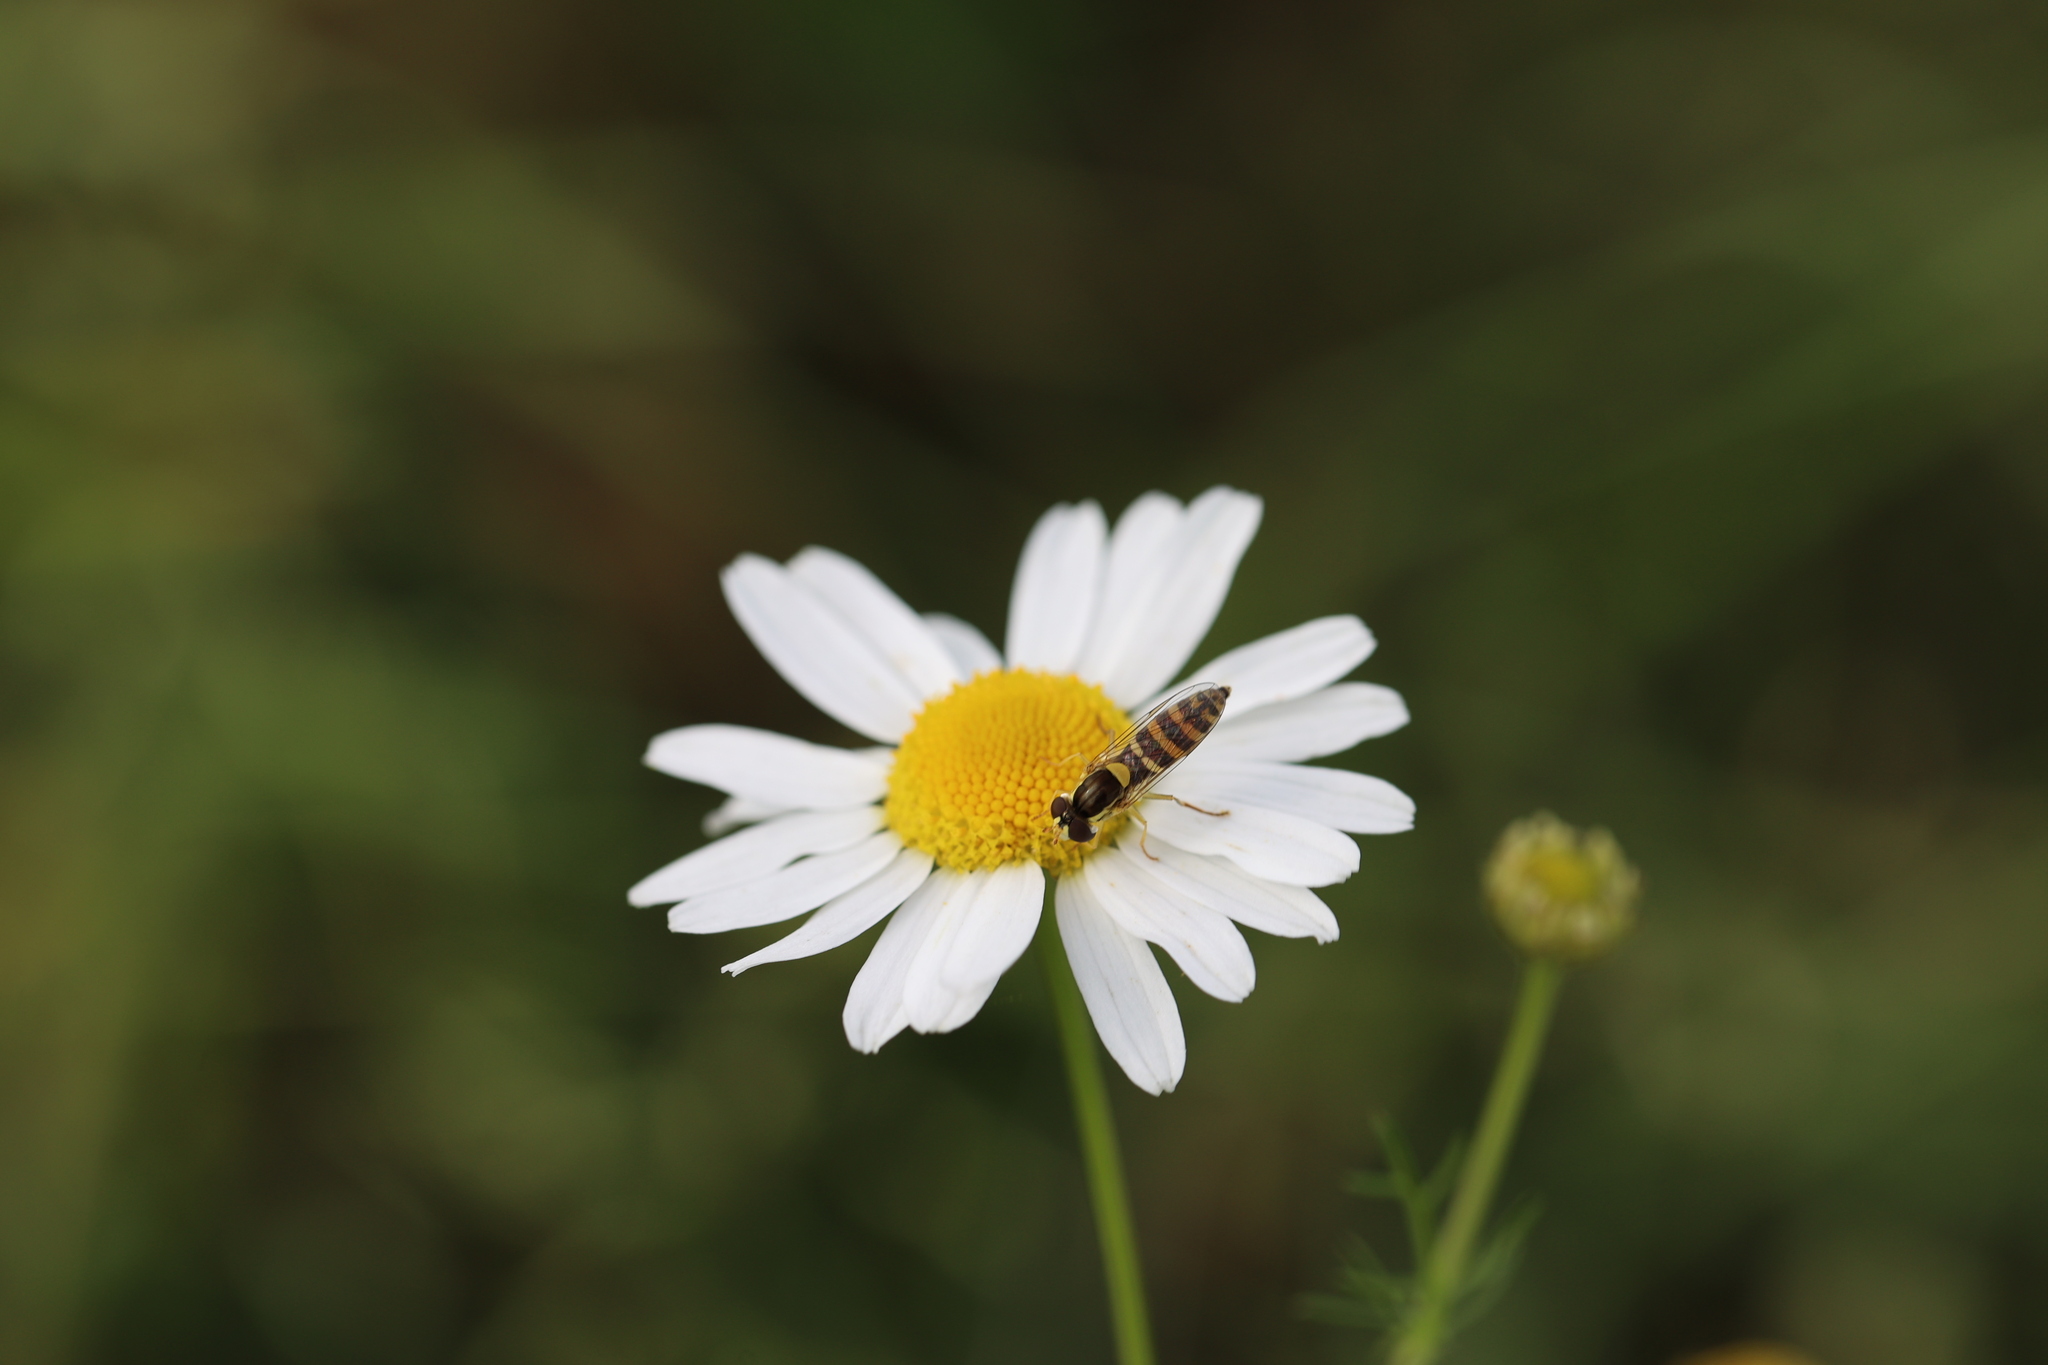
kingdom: Animalia
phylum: Arthropoda
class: Insecta
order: Diptera
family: Syrphidae
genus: Sphaerophoria
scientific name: Sphaerophoria
